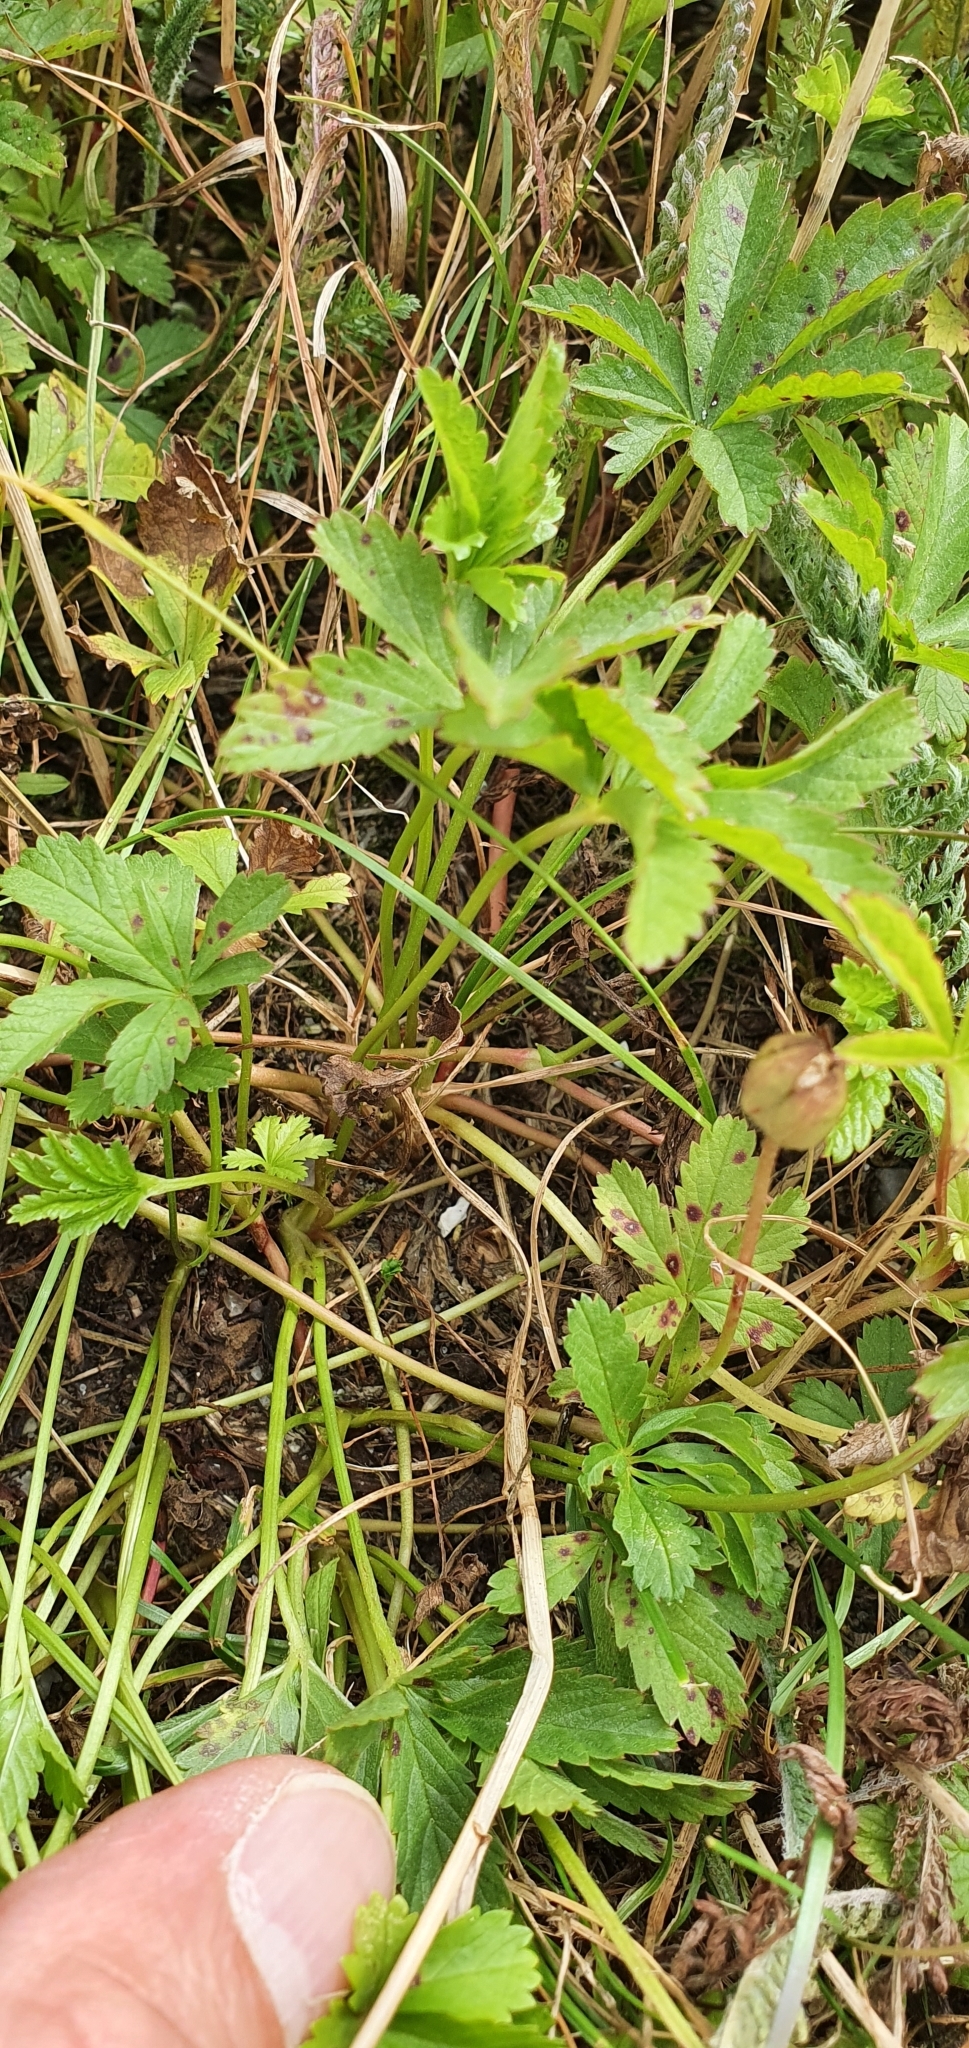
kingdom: Plantae
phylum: Tracheophyta
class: Magnoliopsida
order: Rosales
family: Rosaceae
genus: Potentilla
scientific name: Potentilla reptans
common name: Creeping cinquefoil
